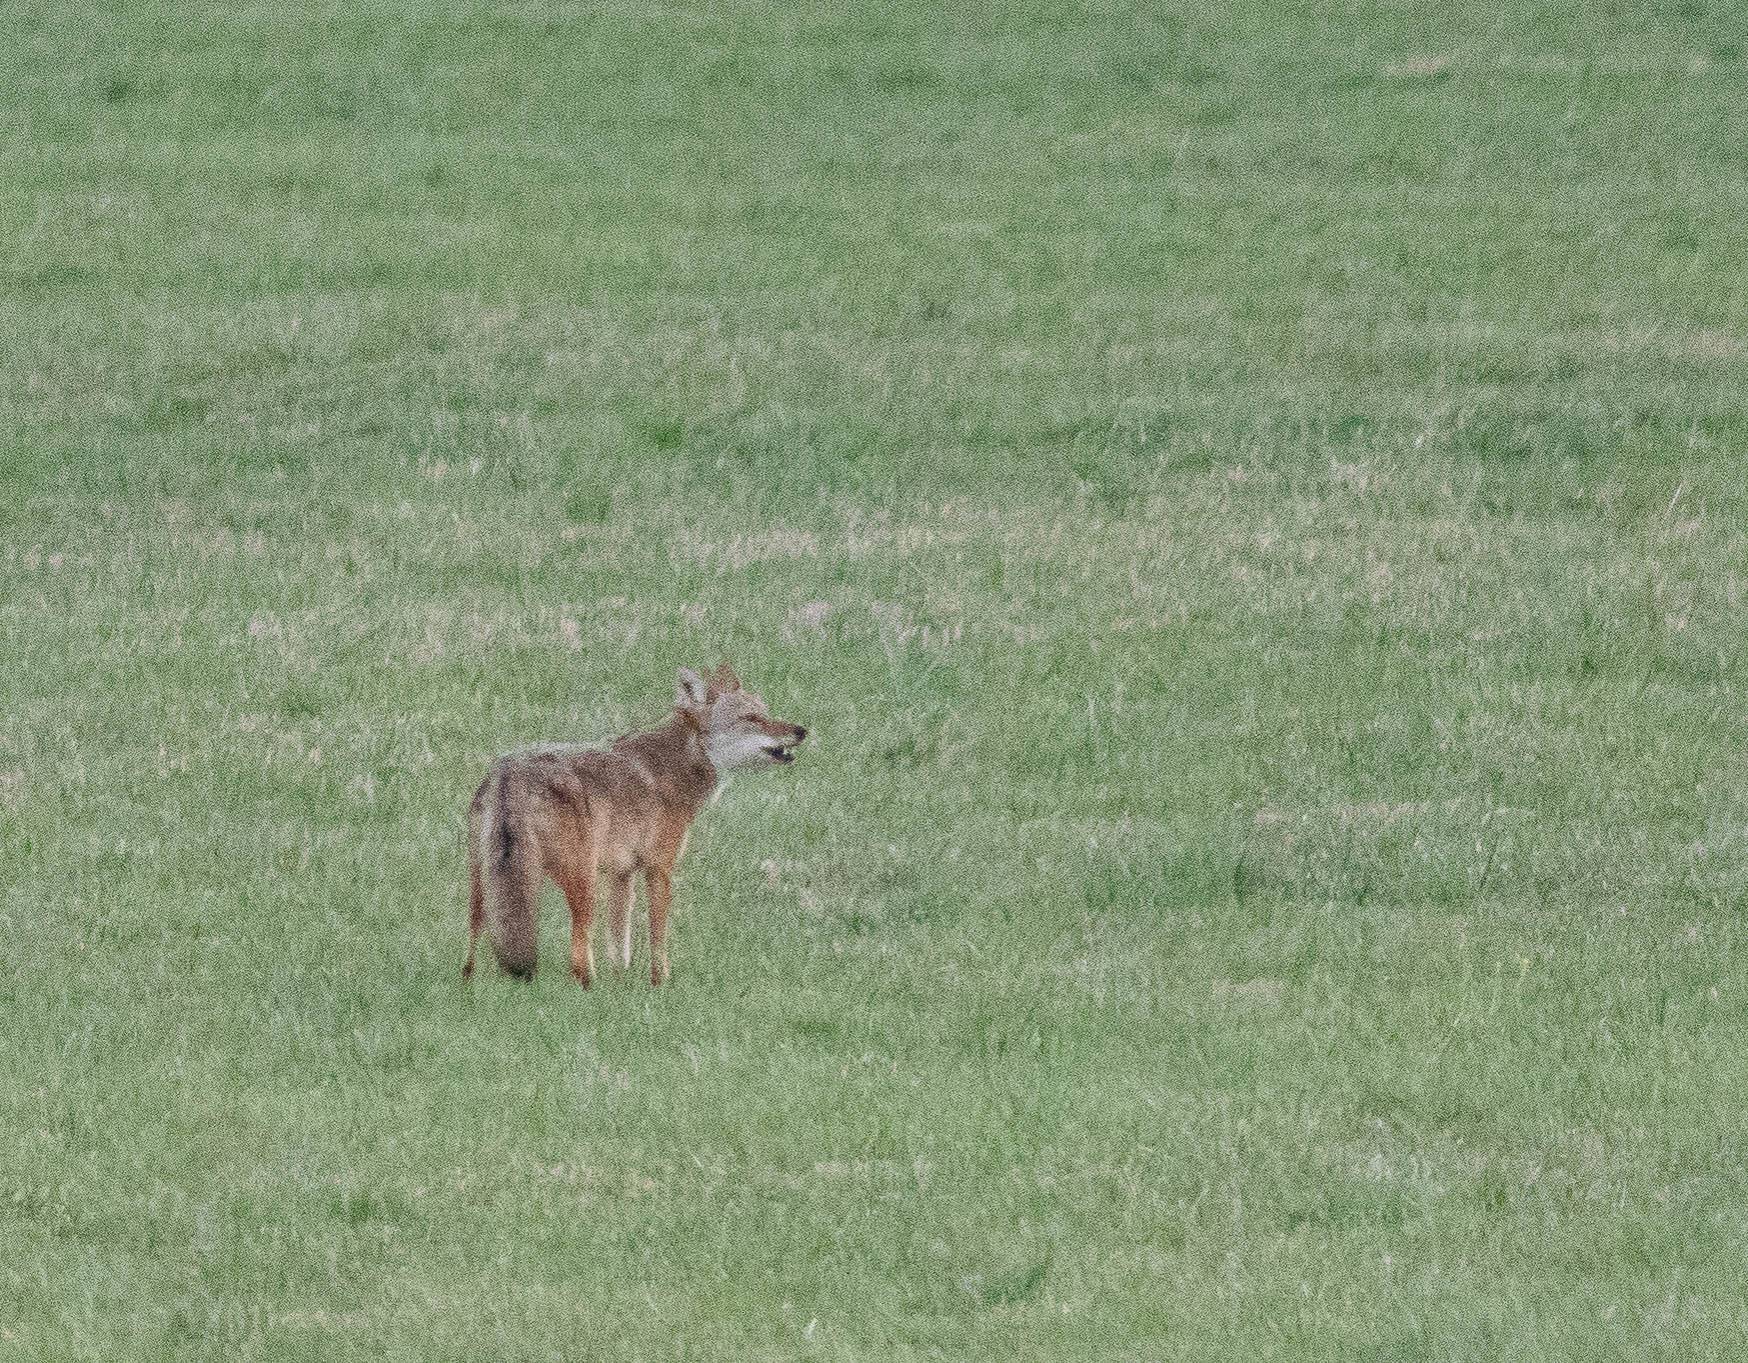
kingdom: Animalia
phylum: Chordata
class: Mammalia
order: Carnivora
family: Canidae
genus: Canis
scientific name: Canis latrans
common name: Coyote
